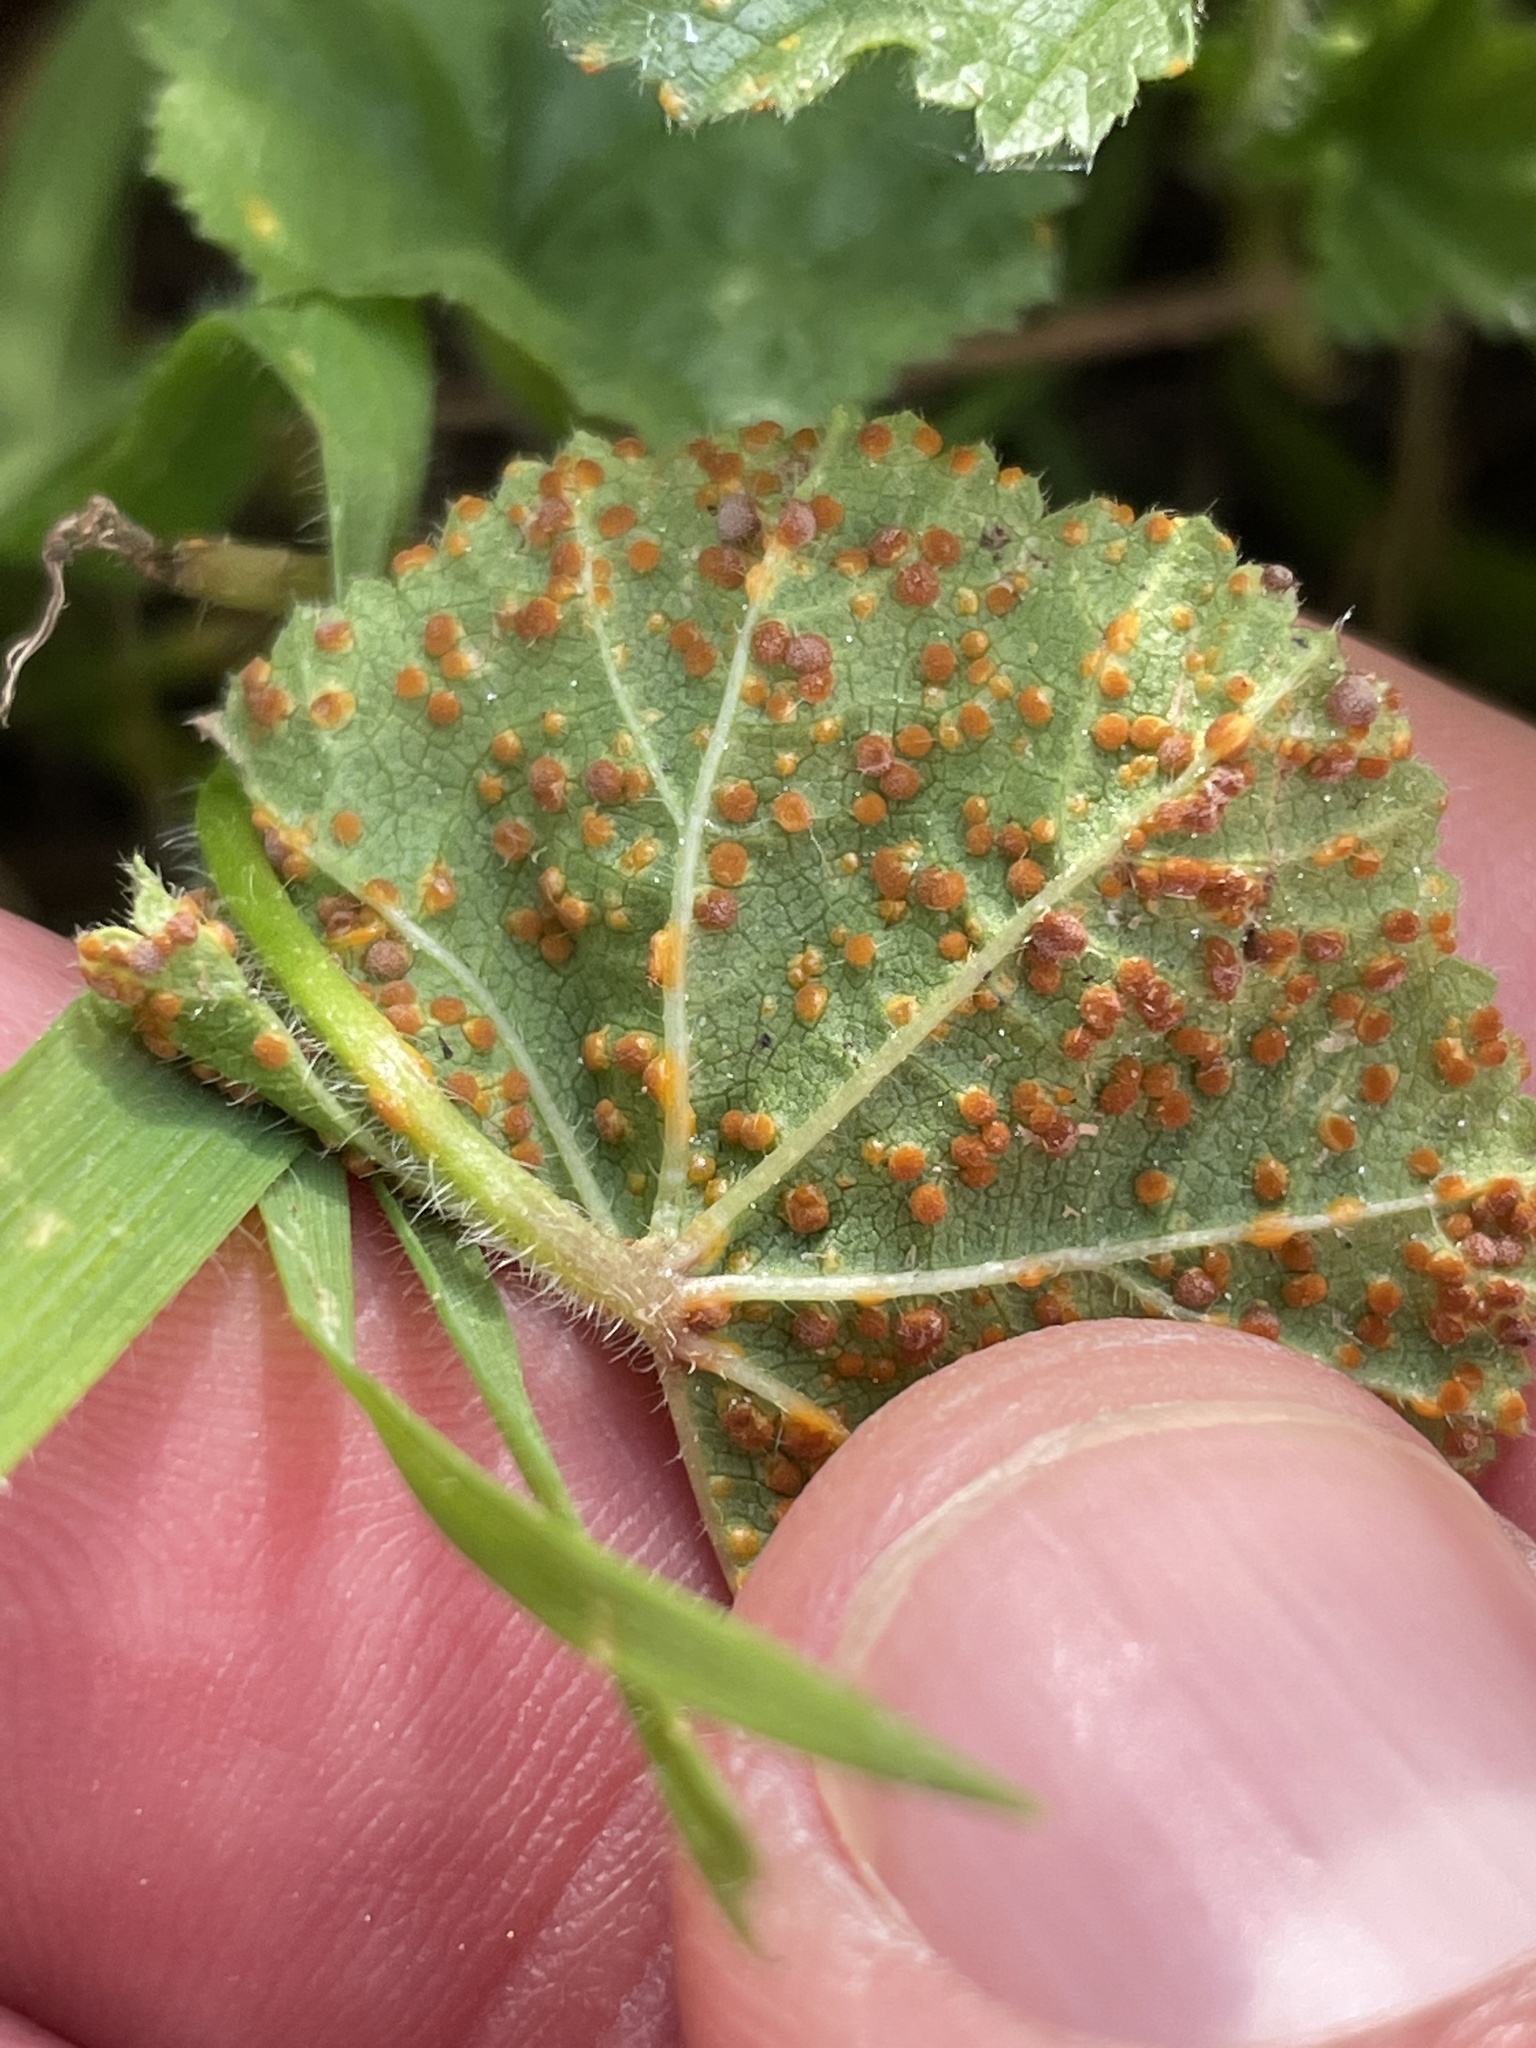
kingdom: Fungi
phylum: Basidiomycota
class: Pucciniomycetes
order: Pucciniales
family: Pucciniaceae
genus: Puccinia
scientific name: Puccinia malvacearum
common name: Hollyhock rust
